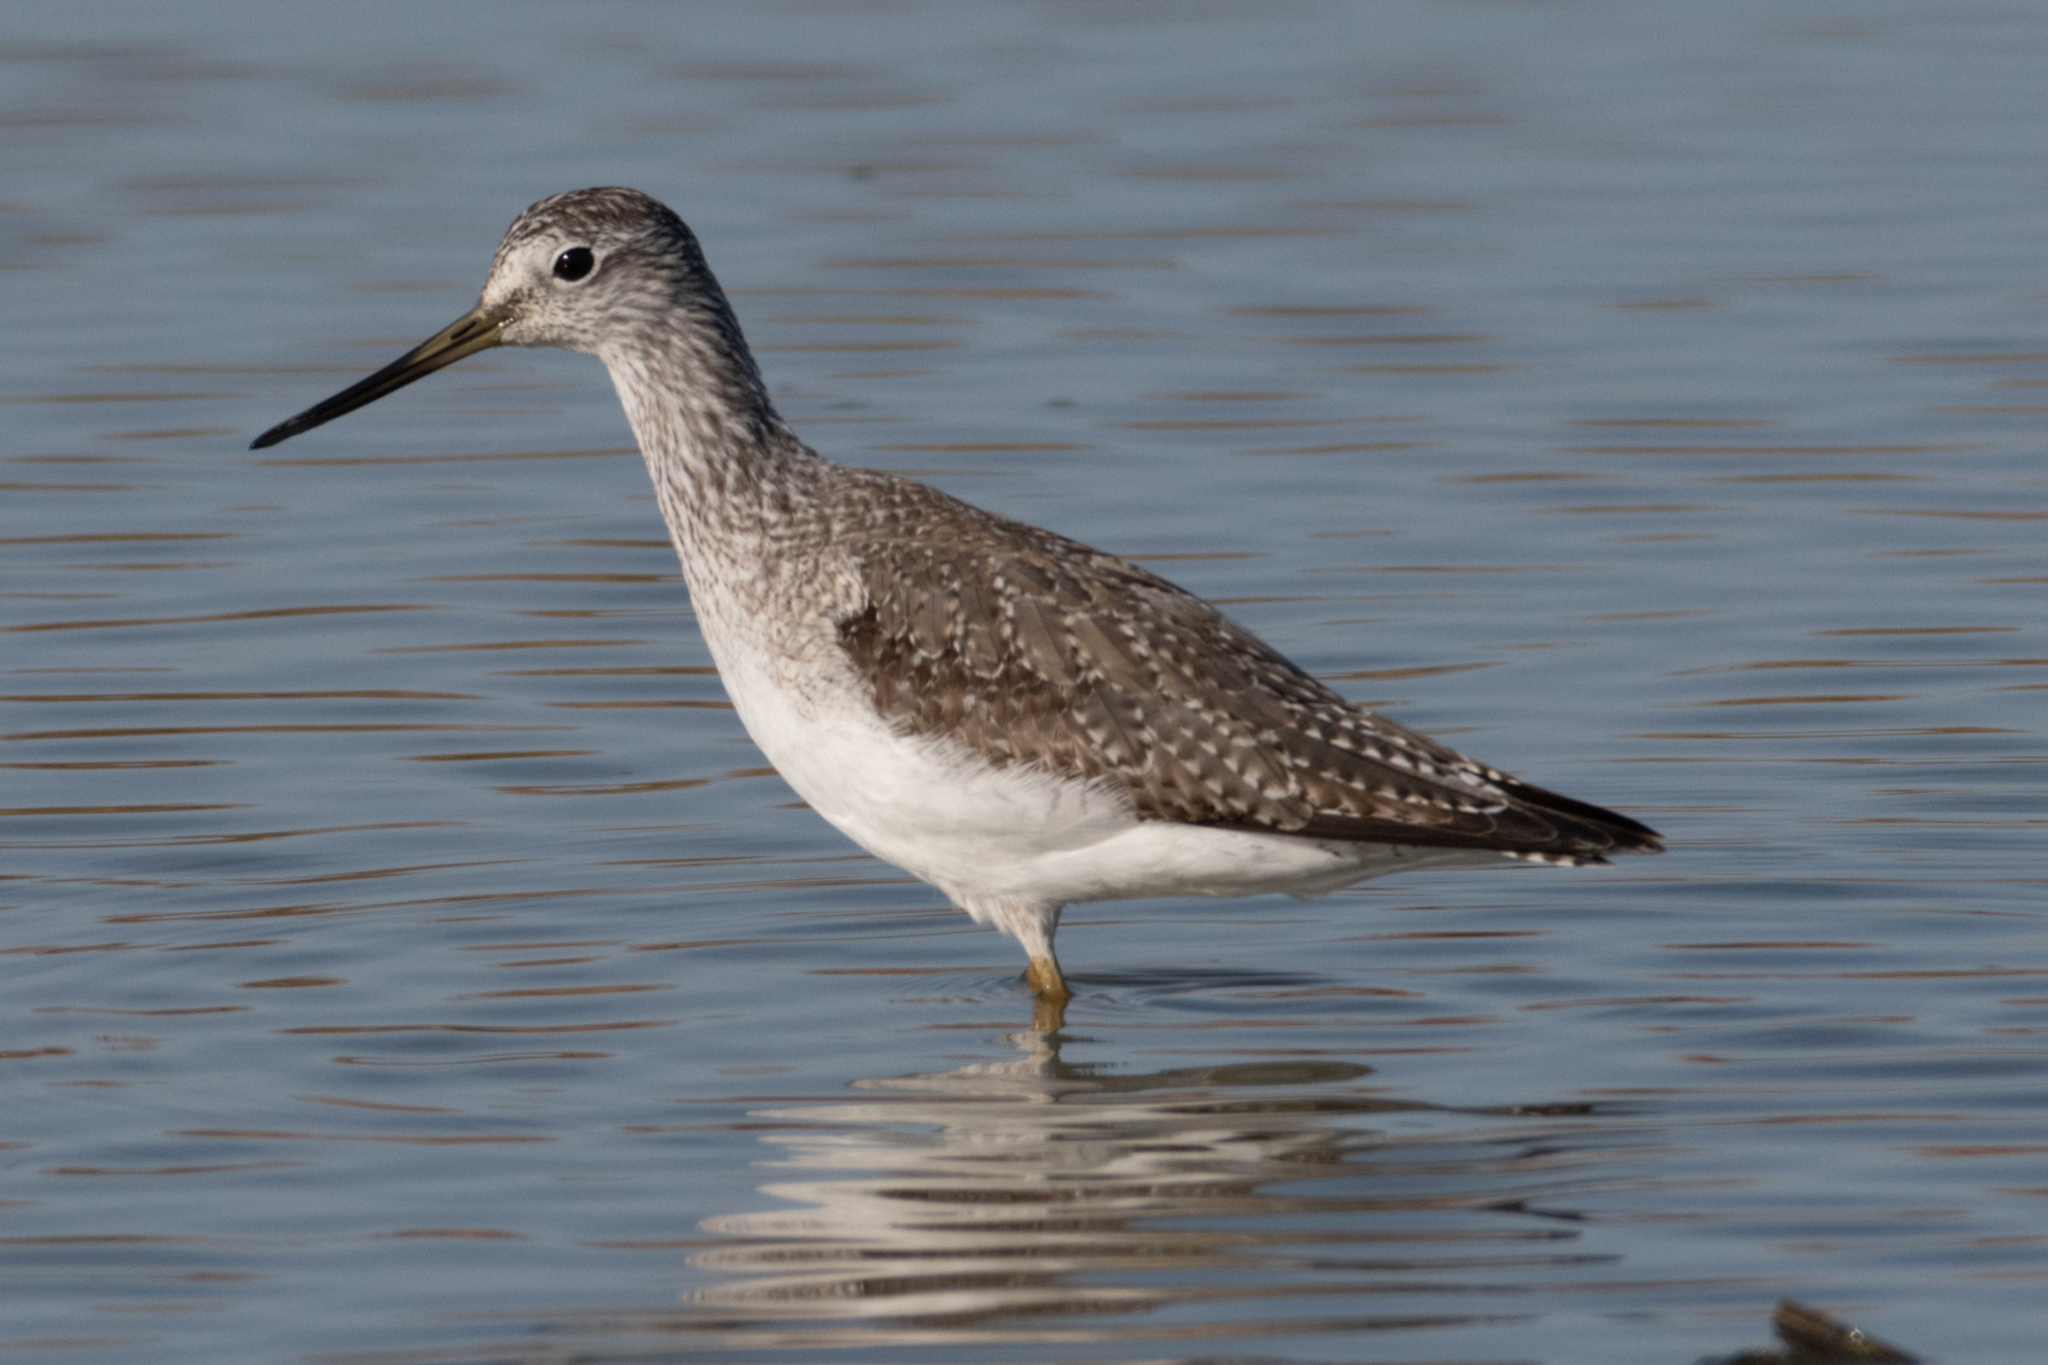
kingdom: Animalia
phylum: Chordata
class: Aves
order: Charadriiformes
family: Scolopacidae
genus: Tringa
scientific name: Tringa melanoleuca
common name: Greater yellowlegs
